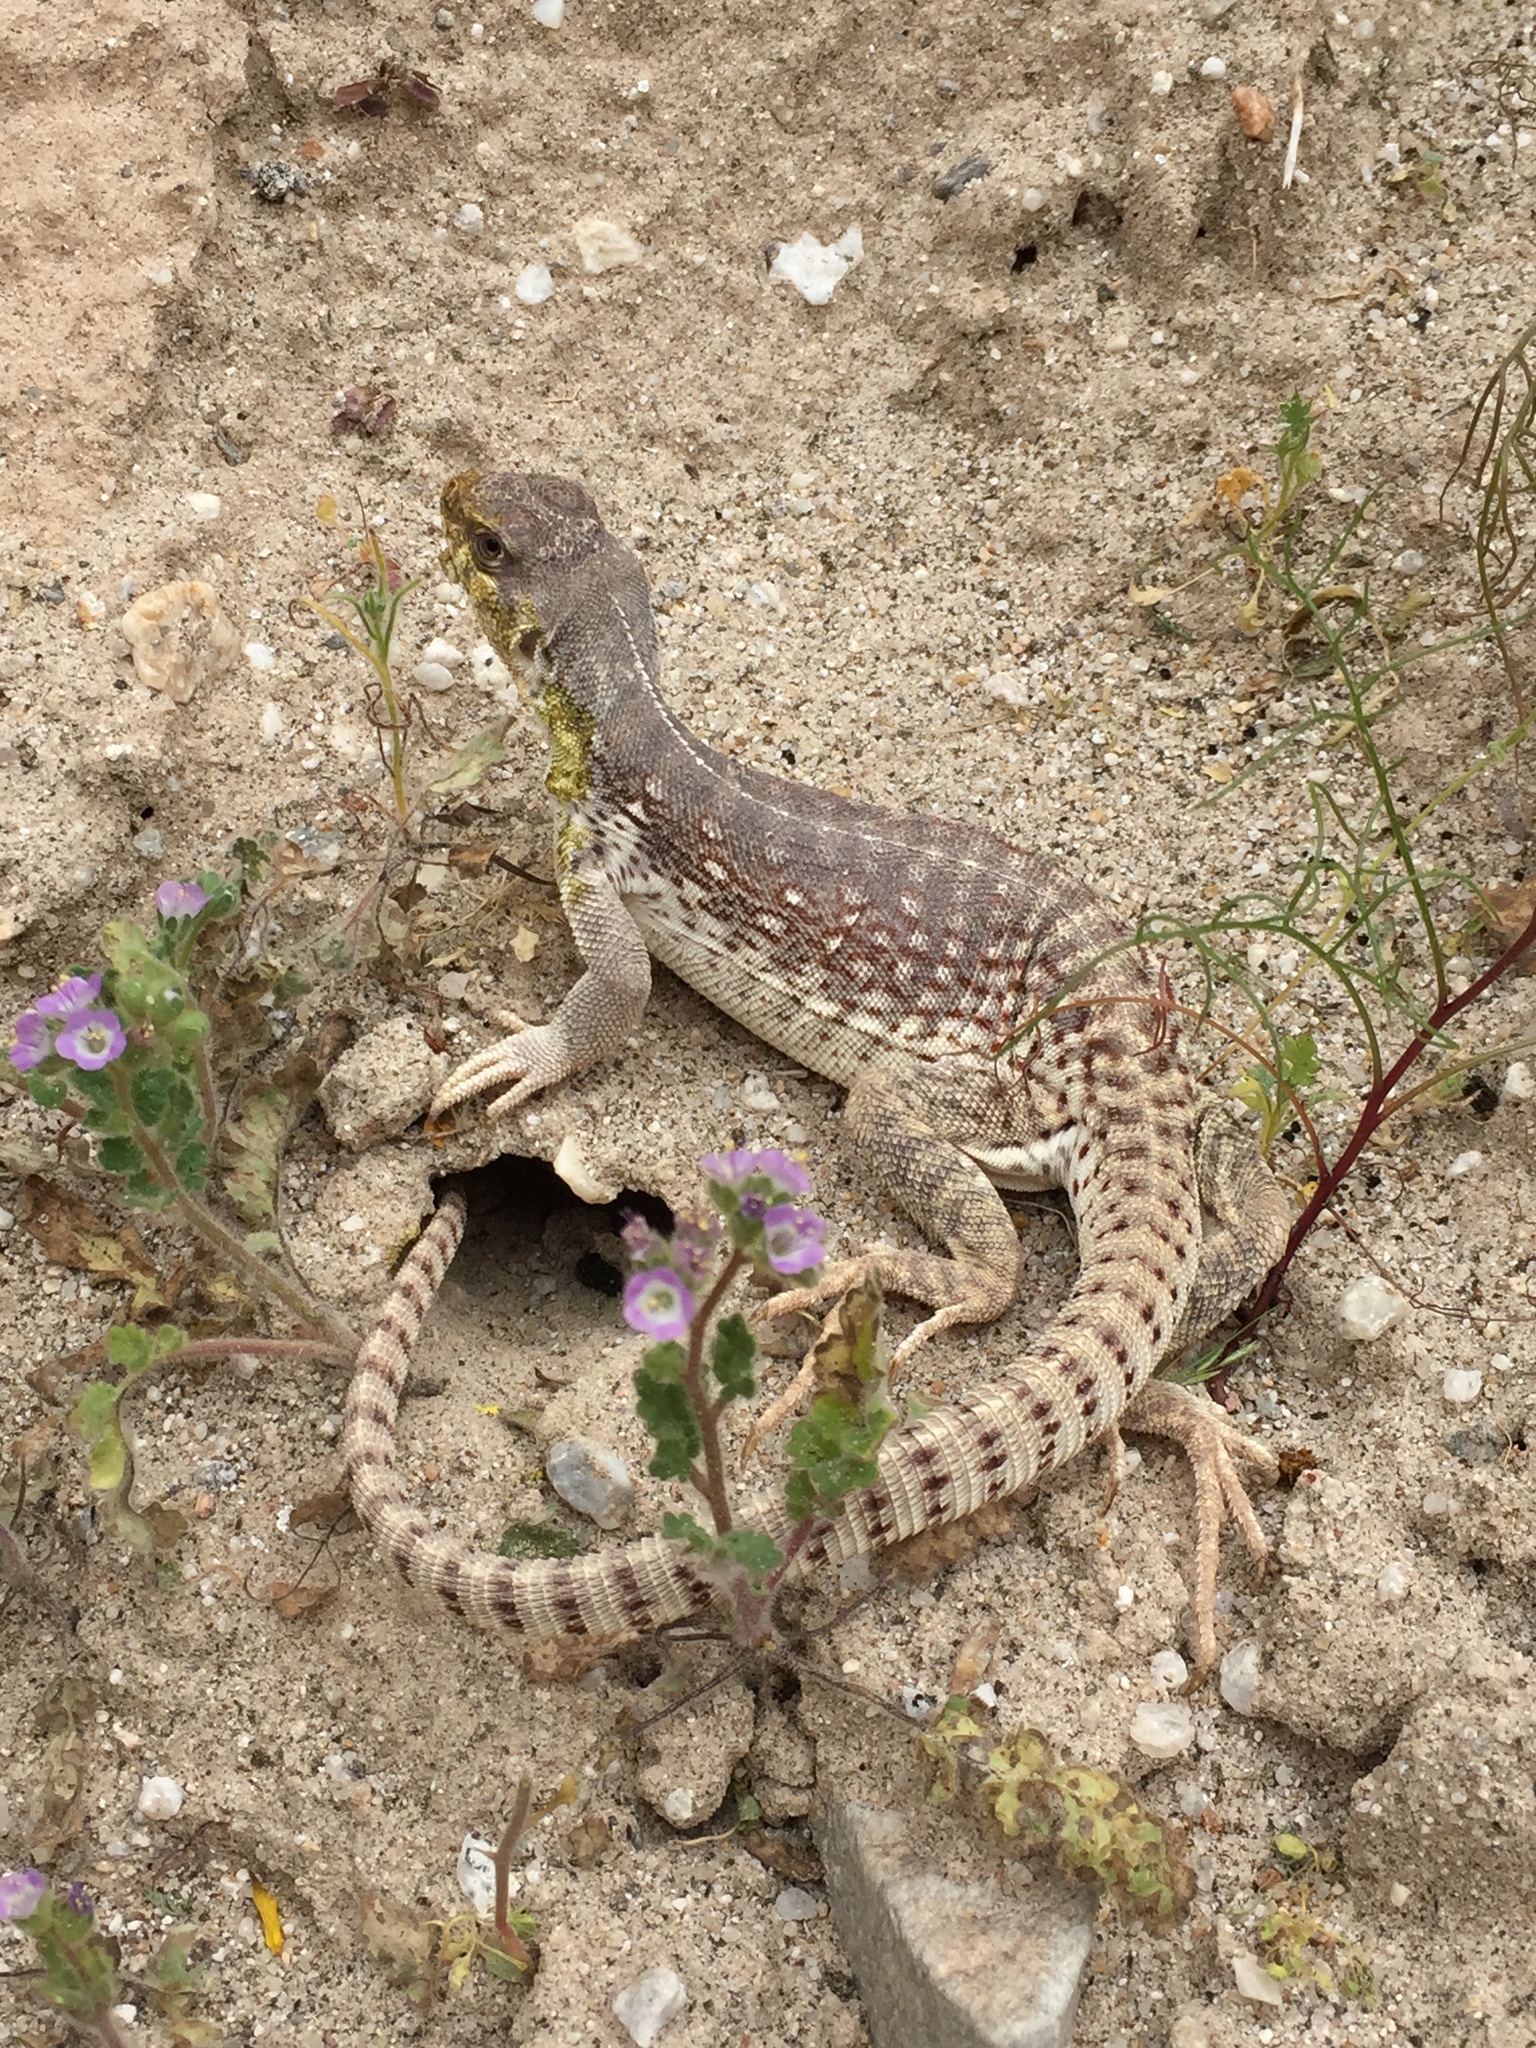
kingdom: Animalia
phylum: Chordata
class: Squamata
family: Iguanidae
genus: Dipsosaurus
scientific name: Dipsosaurus dorsalis
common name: Desert iguana
